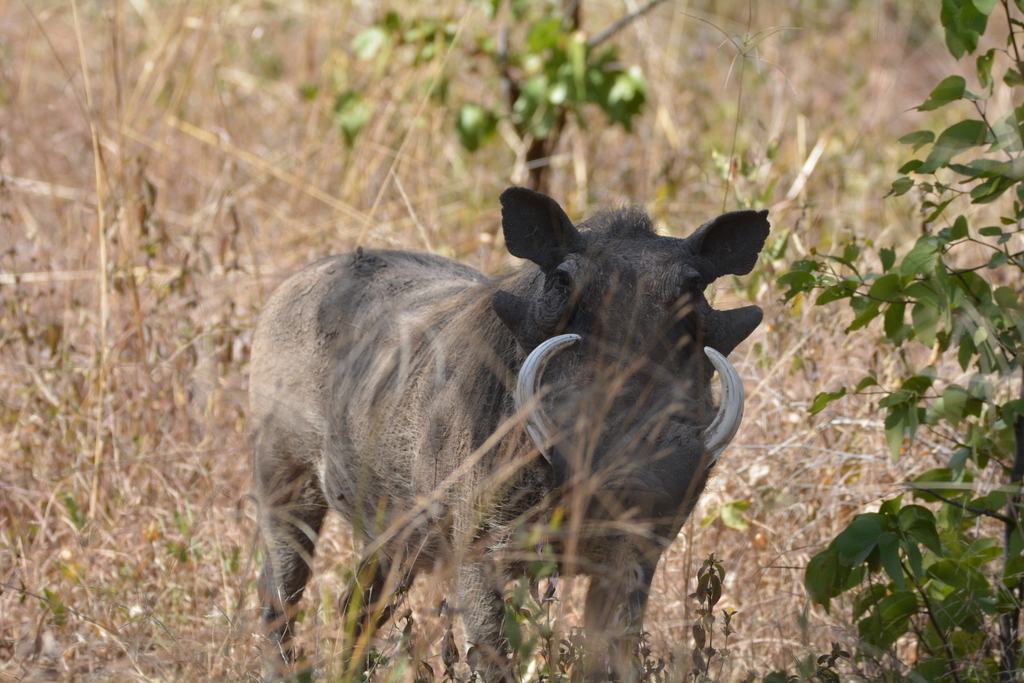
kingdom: Animalia
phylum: Chordata
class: Mammalia
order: Artiodactyla
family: Suidae
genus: Phacochoerus
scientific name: Phacochoerus africanus
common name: Common warthog
